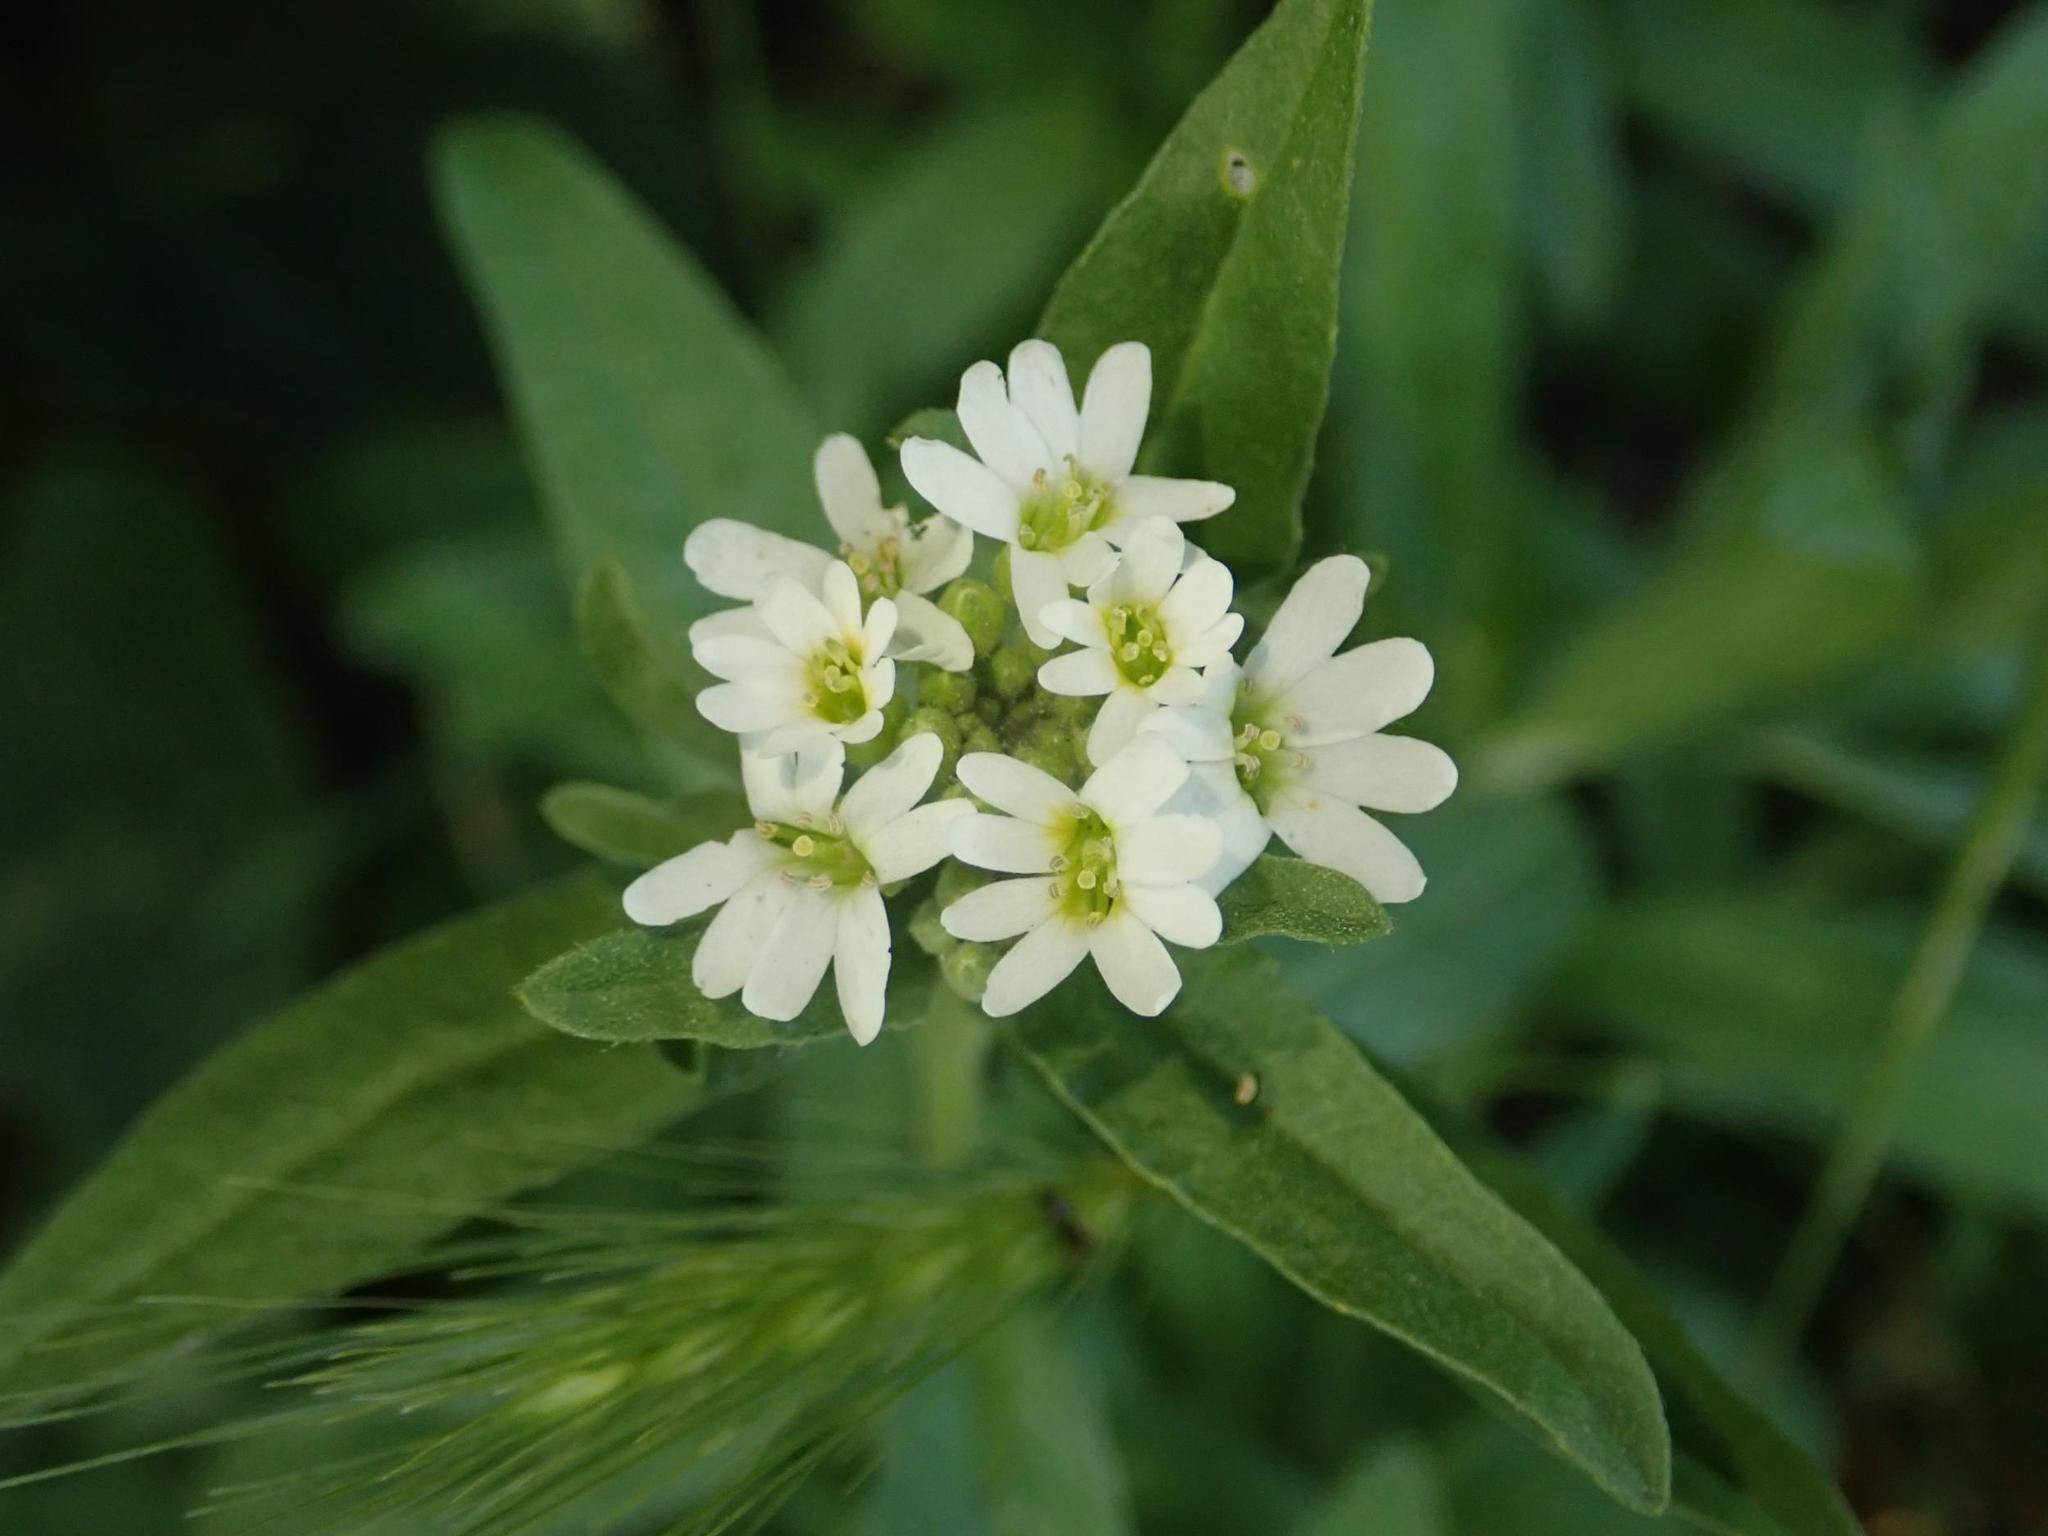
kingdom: Plantae
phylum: Tracheophyta
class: Magnoliopsida
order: Brassicales
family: Brassicaceae
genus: Berteroa
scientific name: Berteroa incana
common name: Hoary alison
